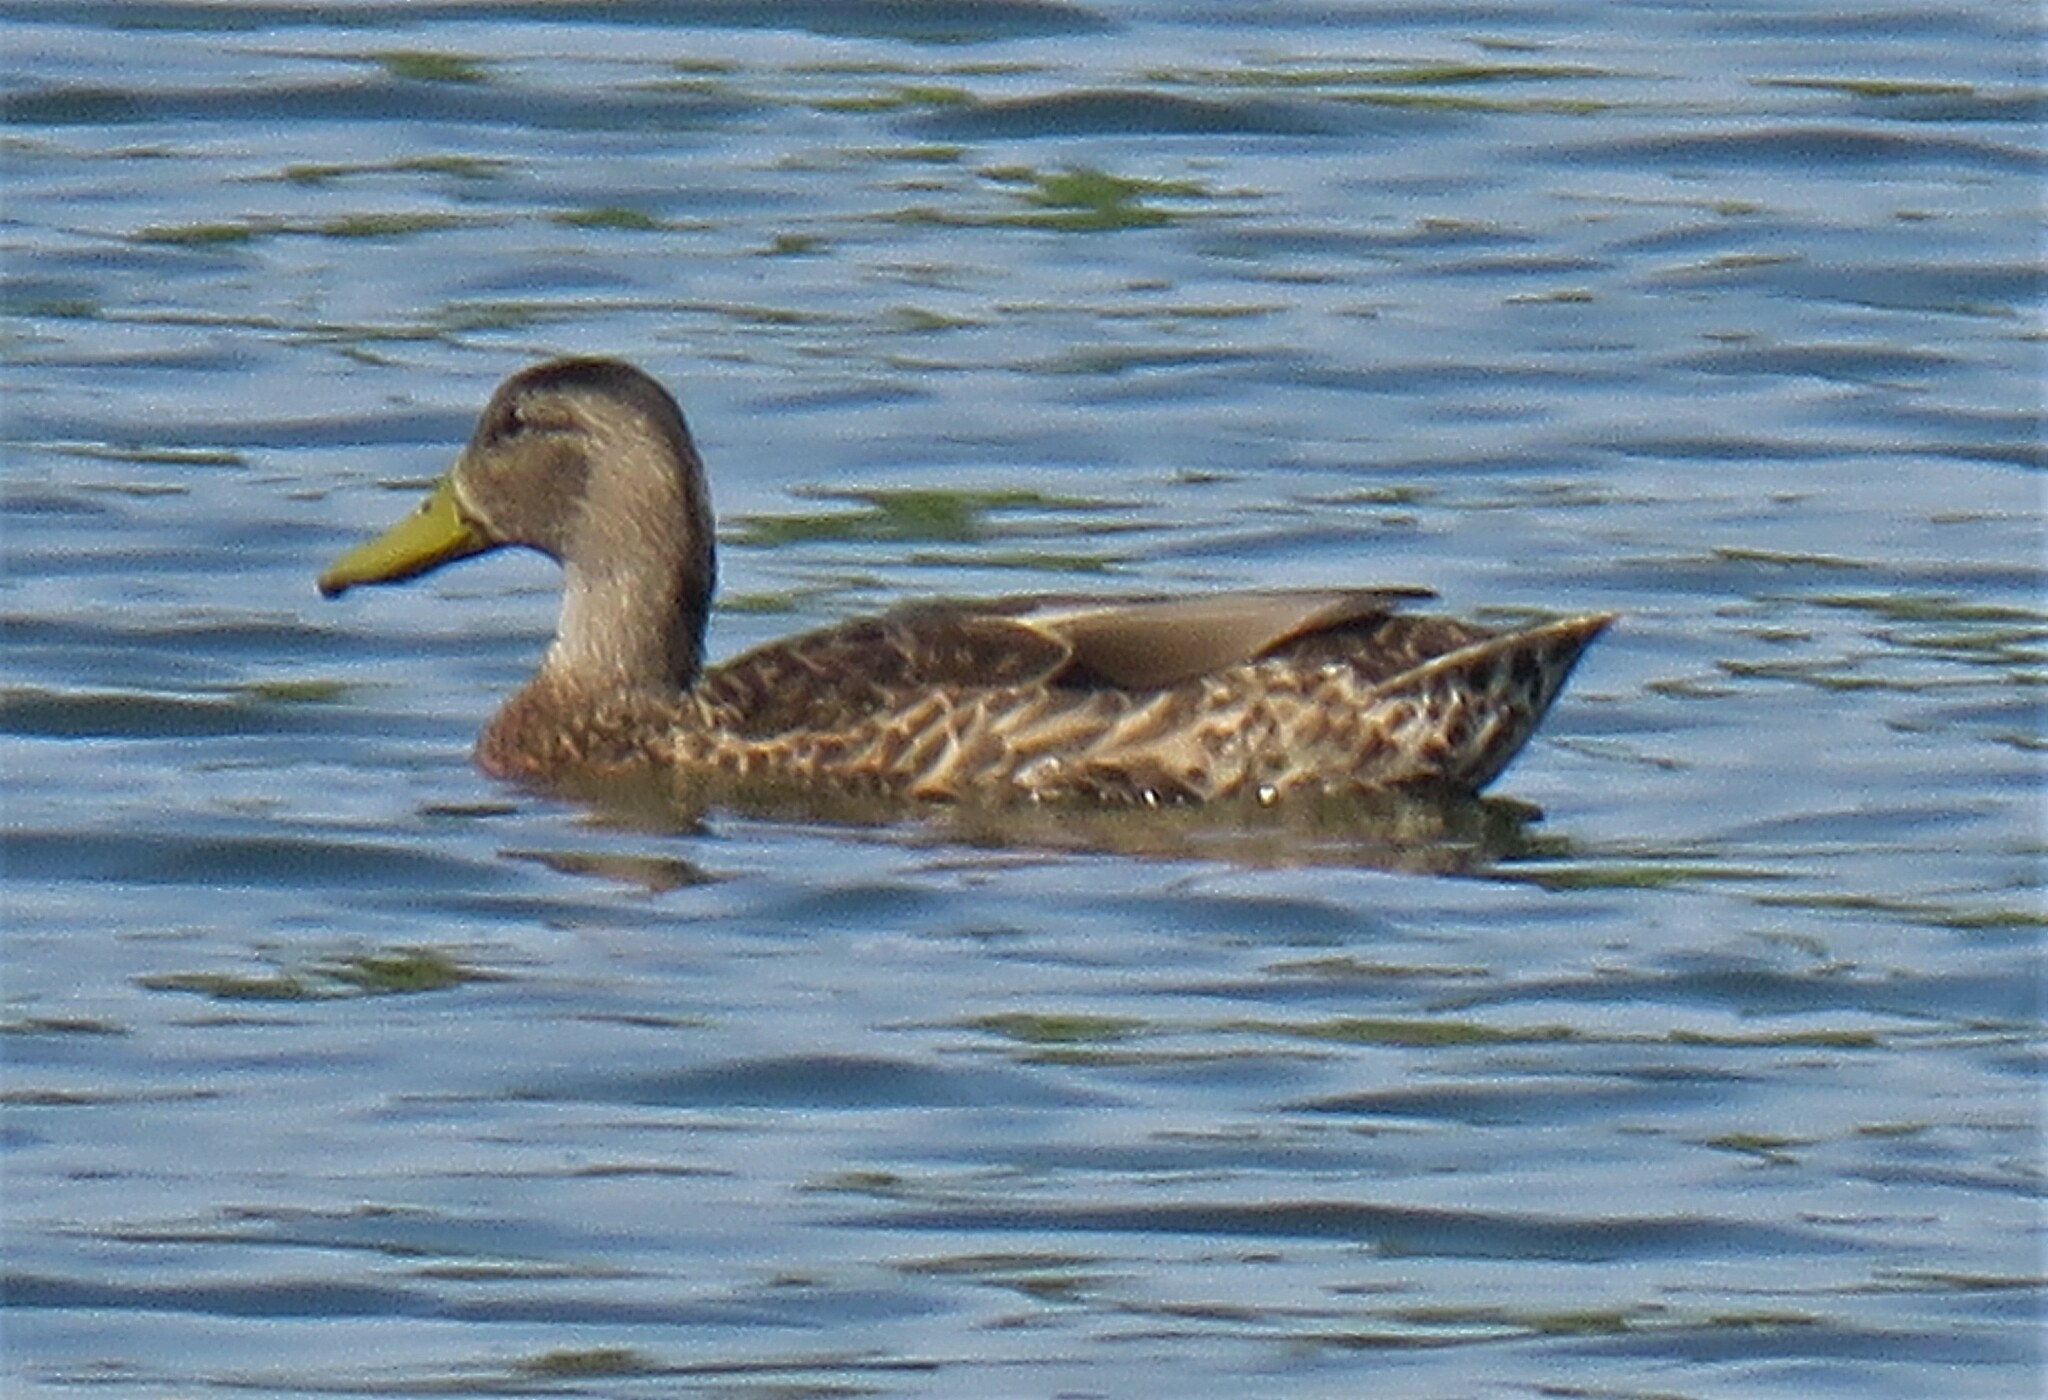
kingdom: Animalia
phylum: Chordata
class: Aves
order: Anseriformes
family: Anatidae
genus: Anas
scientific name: Anas platyrhynchos
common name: Mallard
